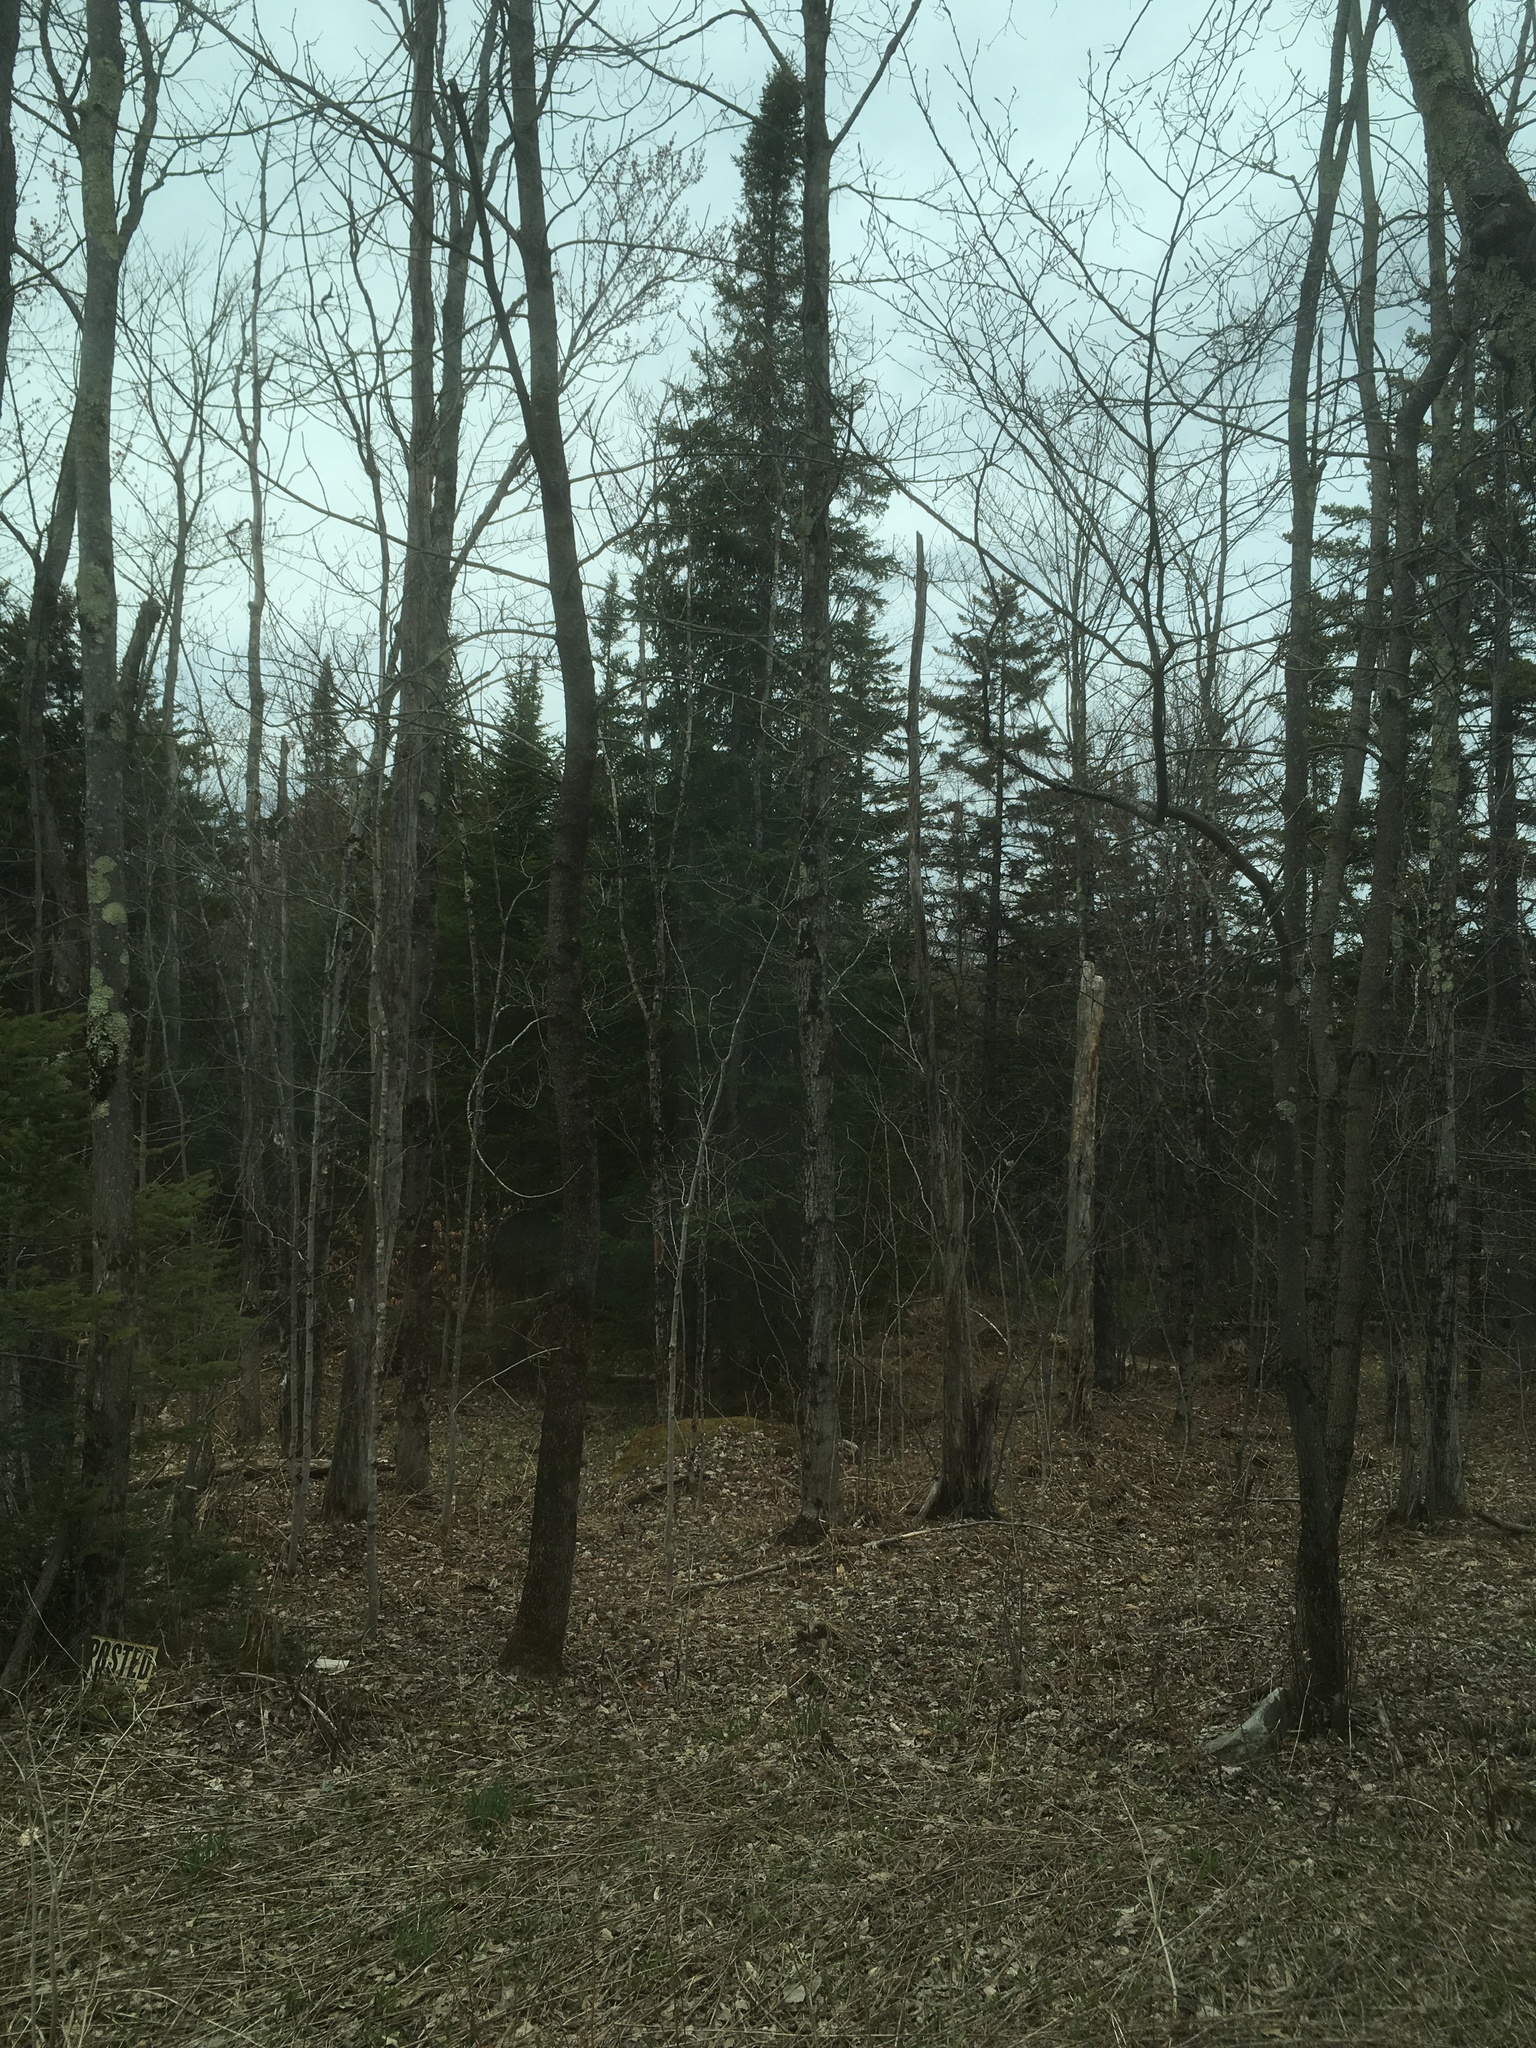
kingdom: Plantae
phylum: Tracheophyta
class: Pinopsida
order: Pinales
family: Pinaceae
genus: Abies
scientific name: Abies balsamea
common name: Balsam fir
